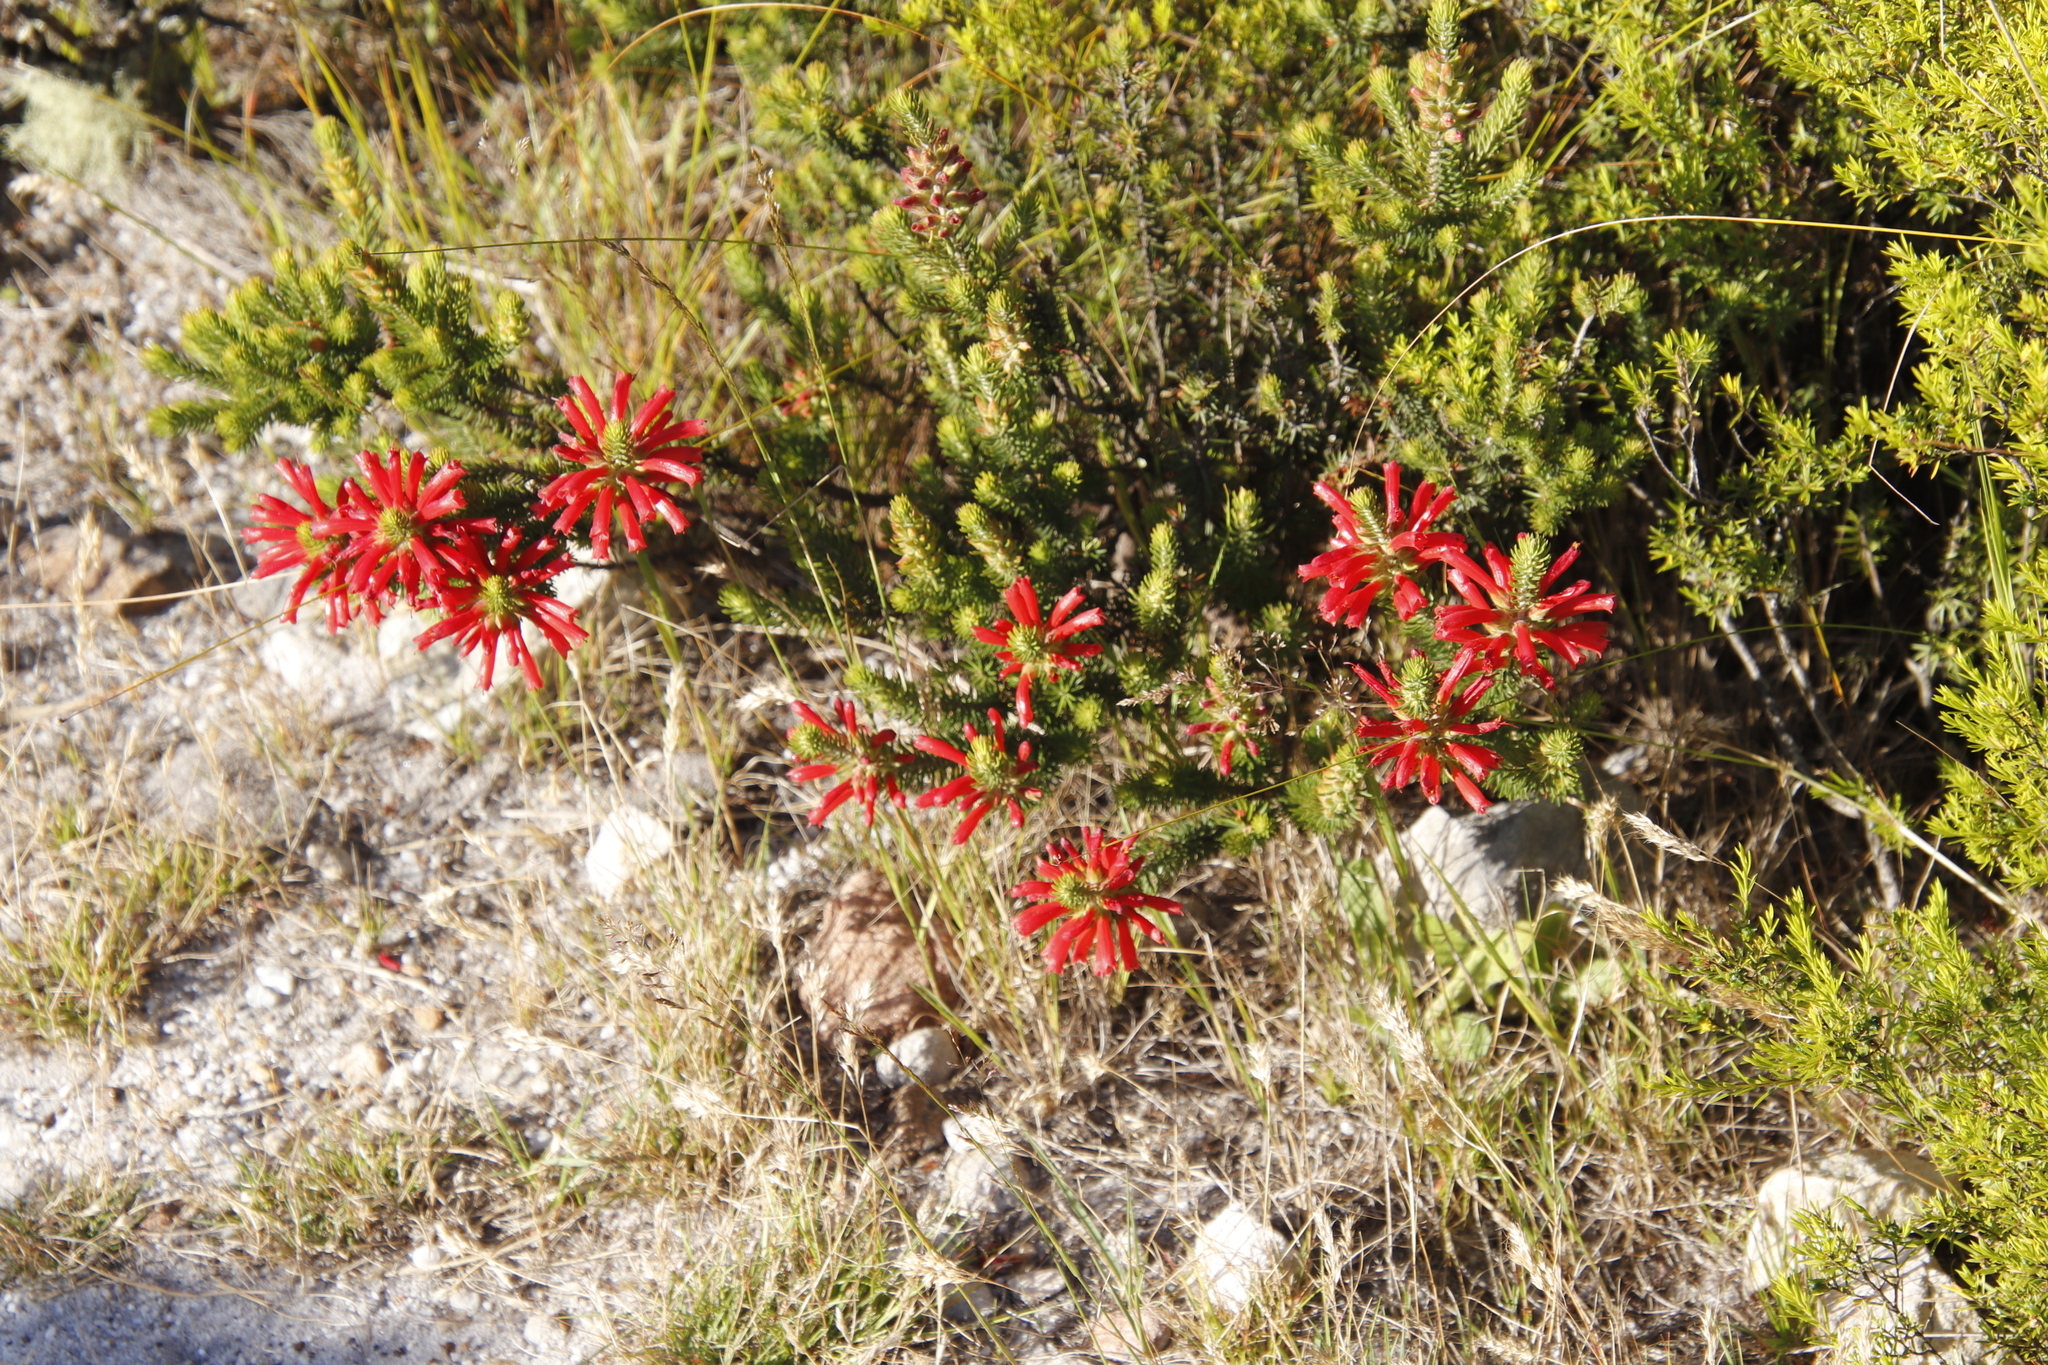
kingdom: Plantae
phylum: Tracheophyta
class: Magnoliopsida
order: Ericales
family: Ericaceae
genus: Erica
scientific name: Erica abietina
